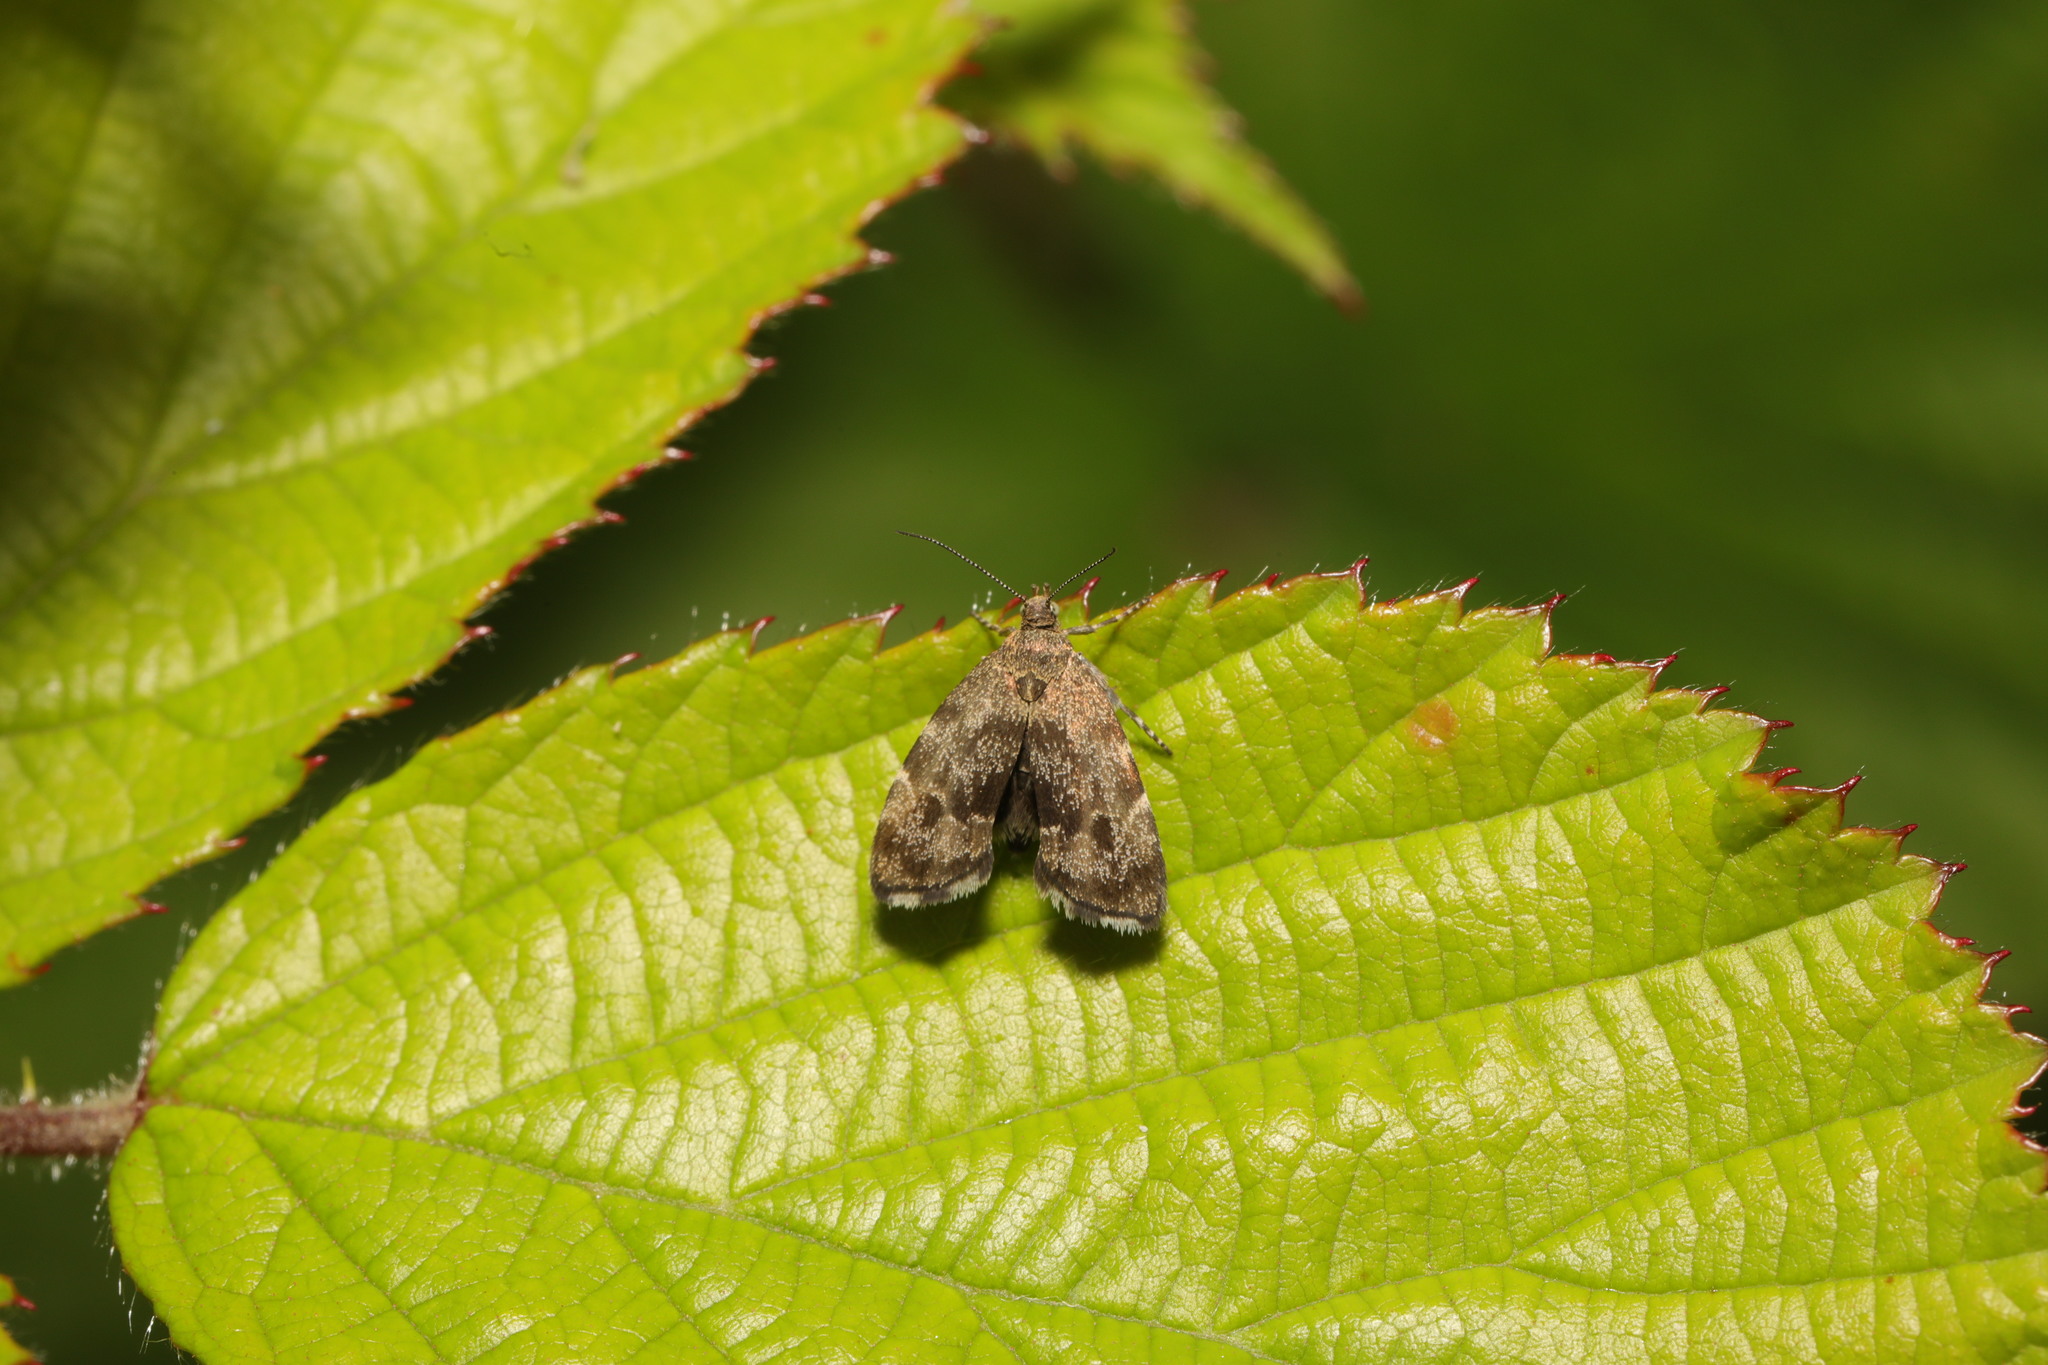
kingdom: Animalia
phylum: Arthropoda
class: Insecta
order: Lepidoptera
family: Choreutidae
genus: Anthophila
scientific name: Anthophila fabriciana
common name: Nettle-tap
